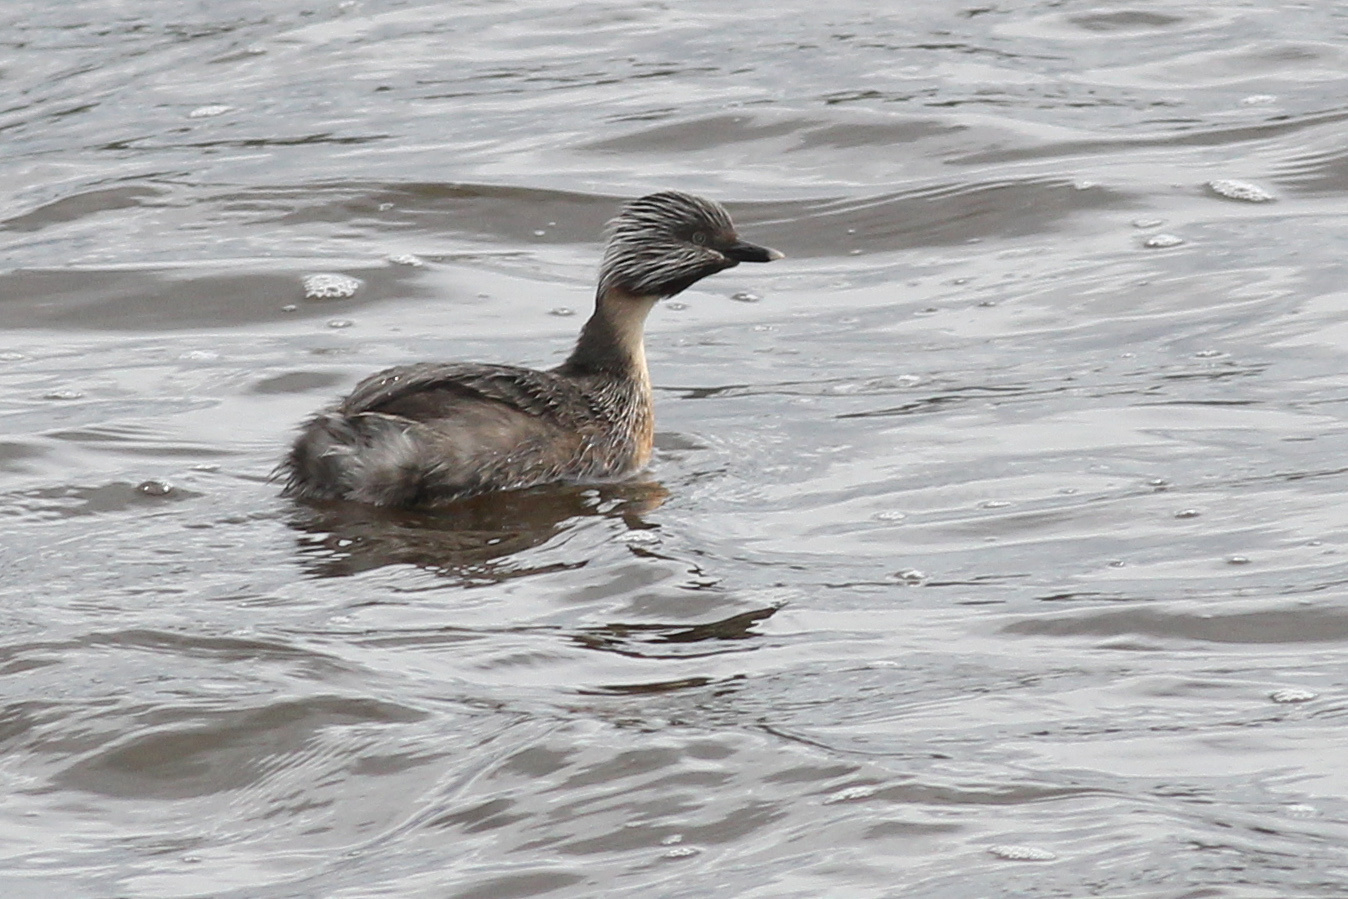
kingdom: Animalia
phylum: Chordata
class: Aves
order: Podicipediformes
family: Podicipedidae
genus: Poliocephalus
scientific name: Poliocephalus poliocephalus
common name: Hoary-headed grebe
